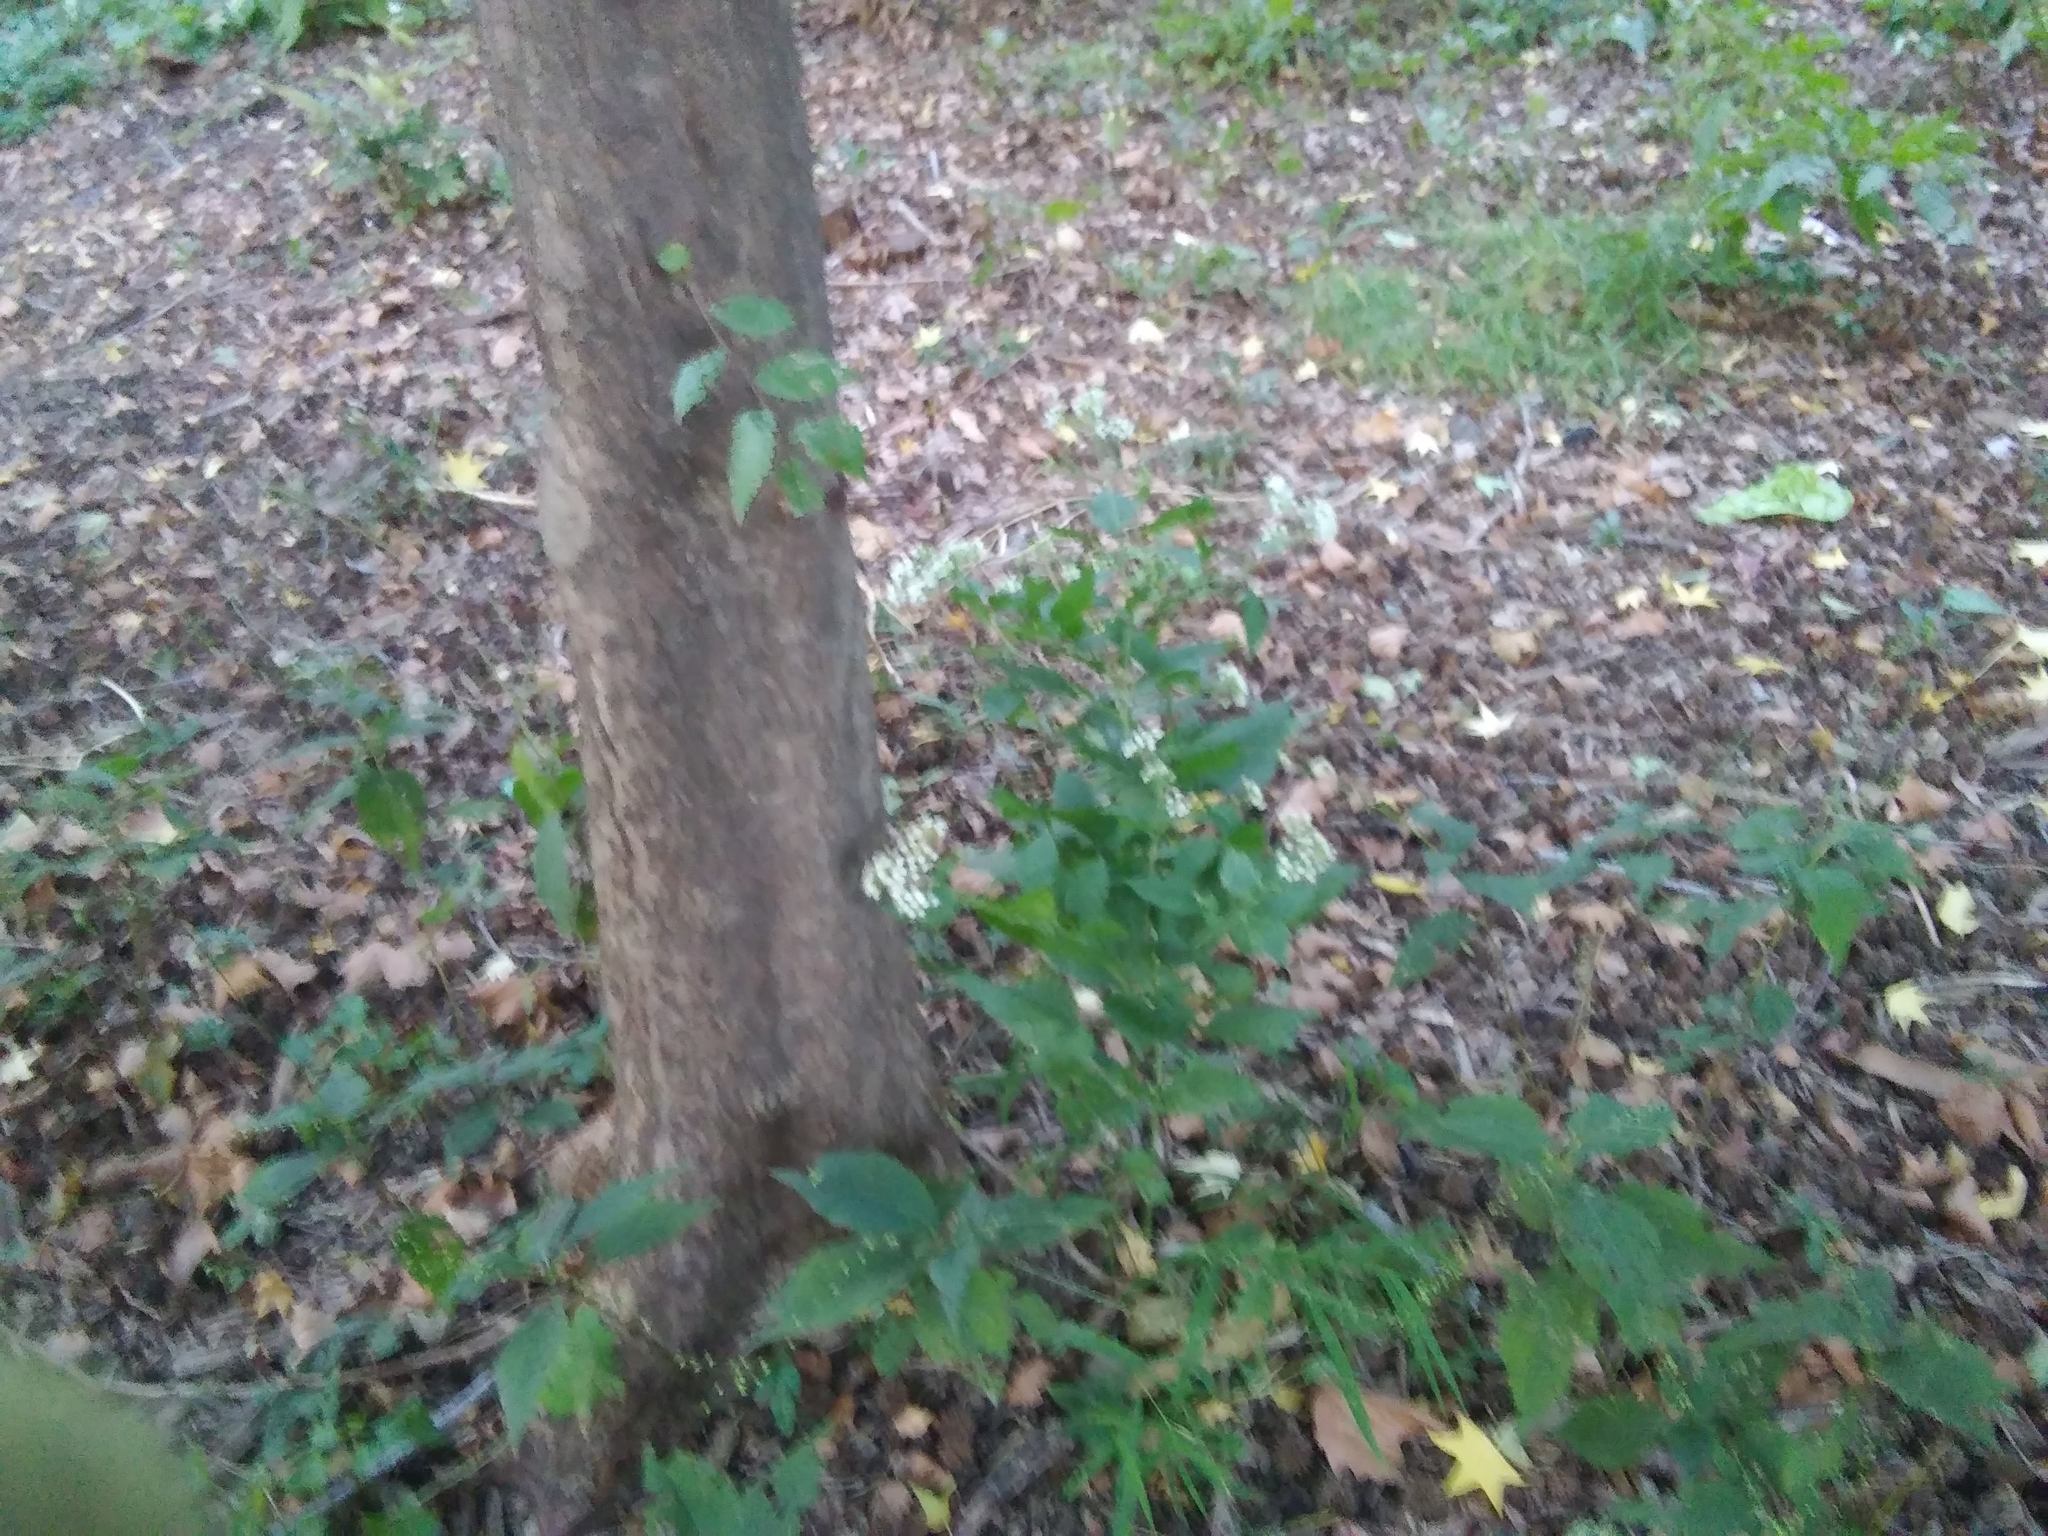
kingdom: Plantae
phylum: Tracheophyta
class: Magnoliopsida
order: Asterales
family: Asteraceae
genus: Ageratina
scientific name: Ageratina altissima
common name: White snakeroot
